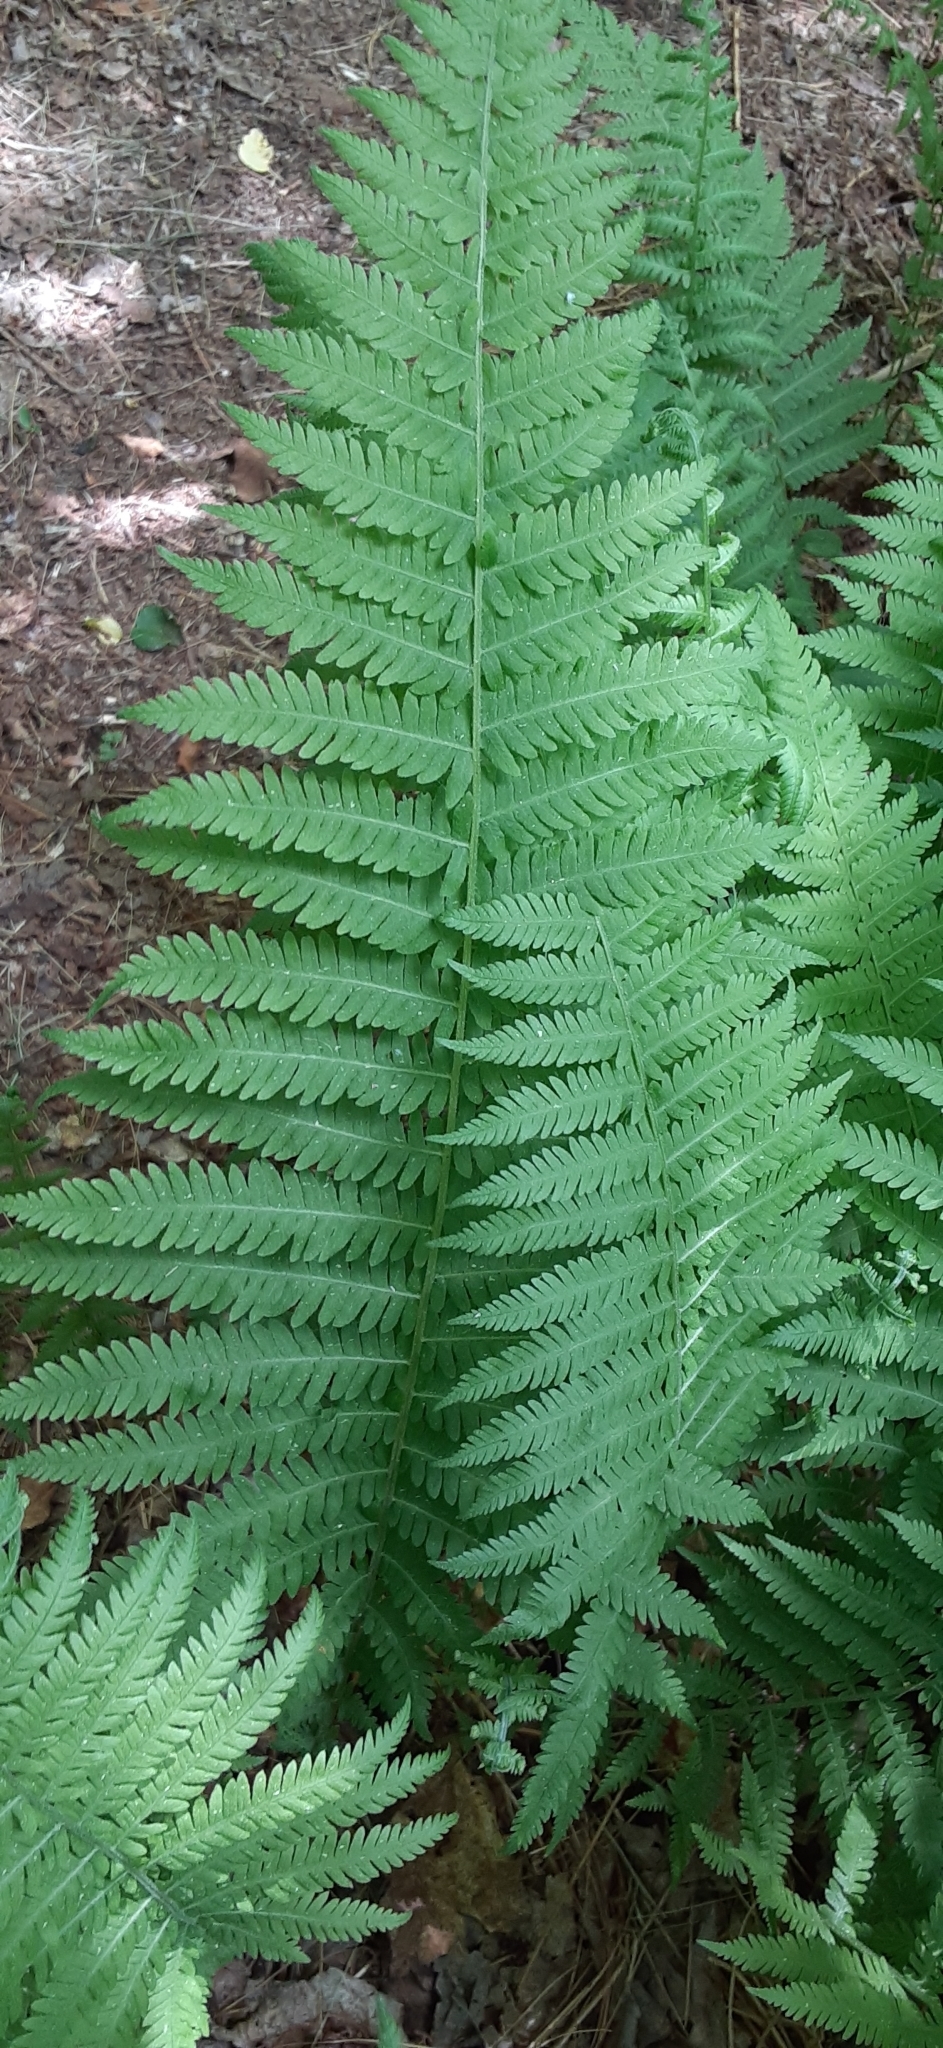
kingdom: Plantae
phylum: Tracheophyta
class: Polypodiopsida
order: Polypodiales
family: Thelypteridaceae
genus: Amauropelta
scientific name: Amauropelta noveboracensis
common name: New york fern
